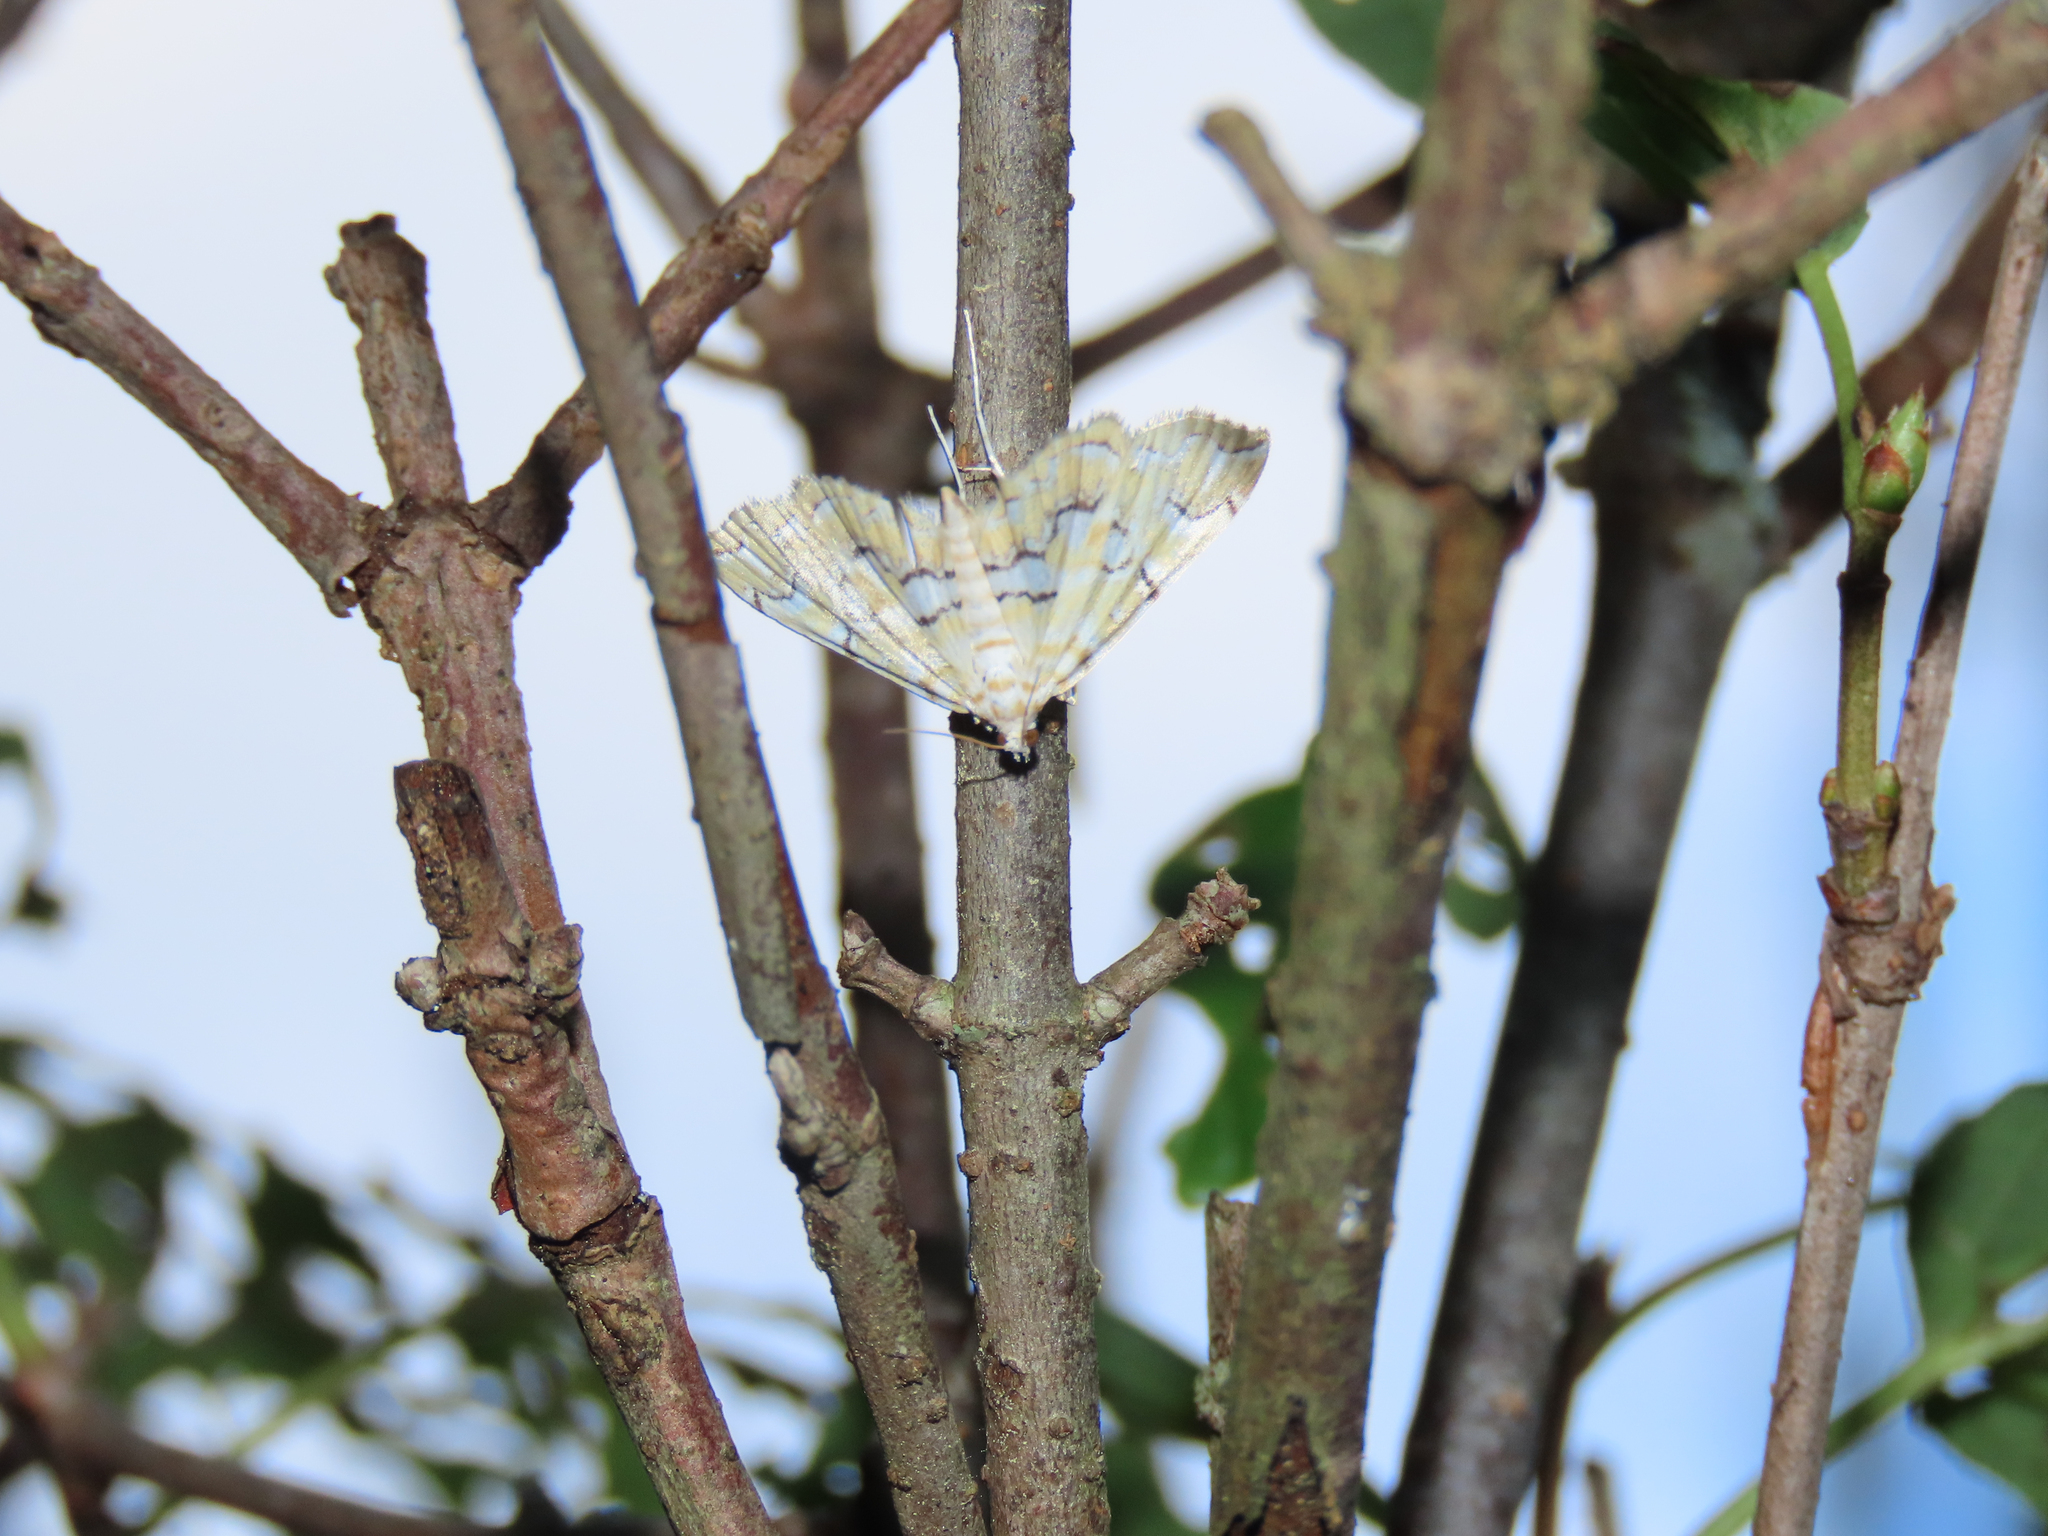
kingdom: Animalia
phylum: Arthropoda
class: Insecta
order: Lepidoptera
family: Crambidae
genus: Elophila
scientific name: Elophila icciusalis
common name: Pondside pyralid moth
